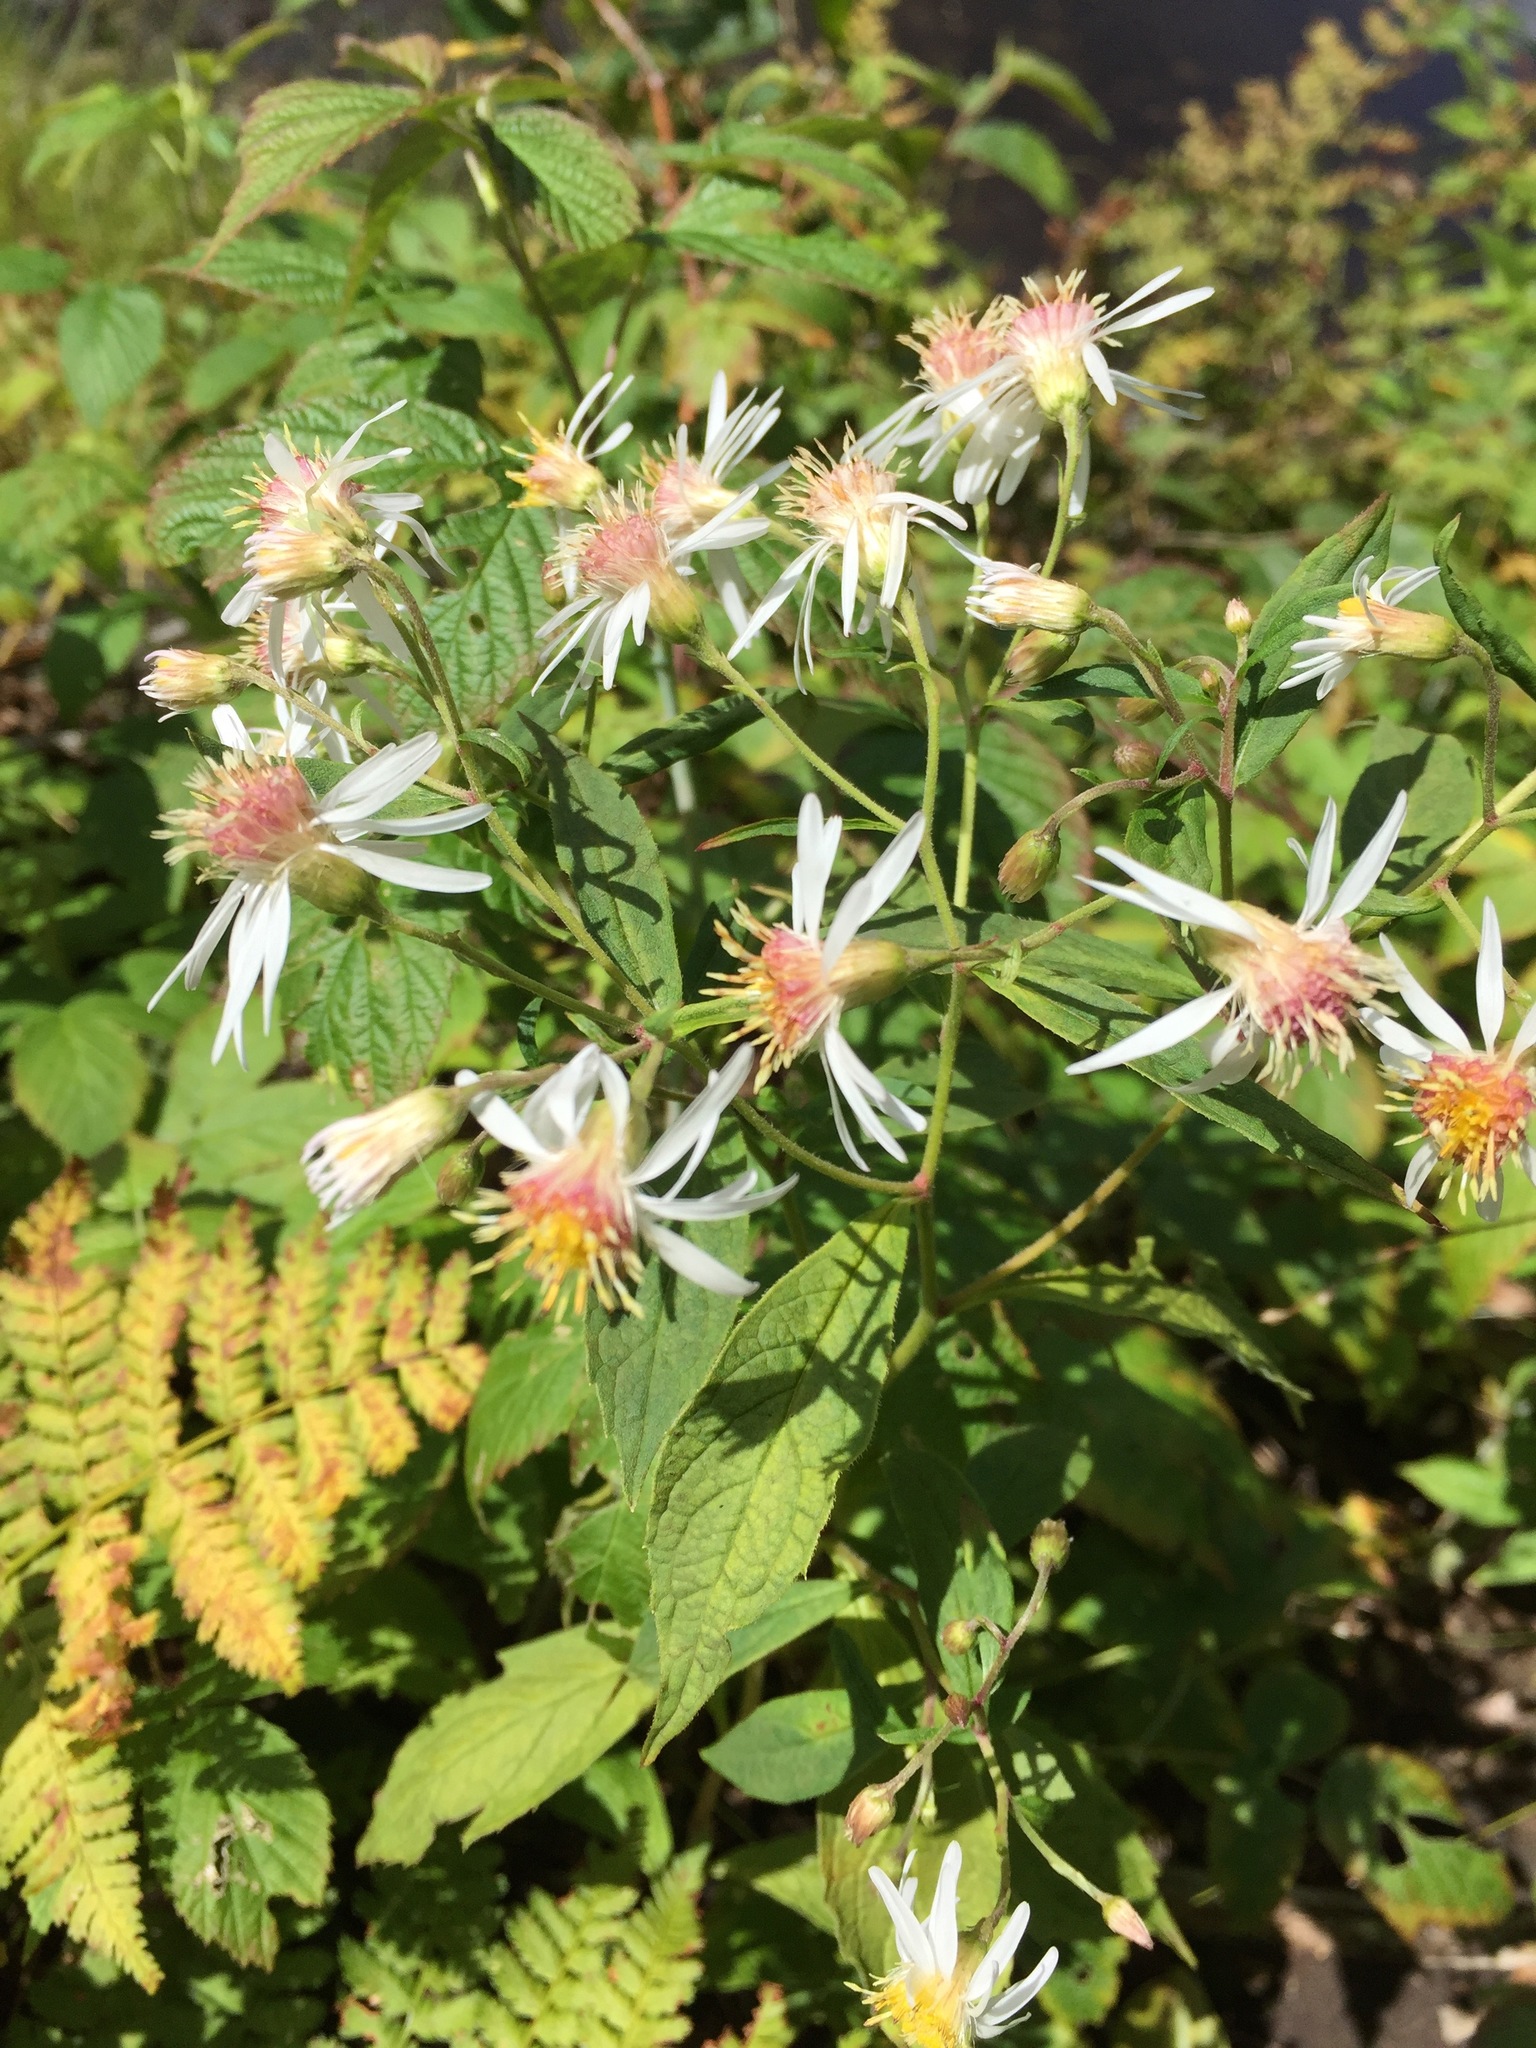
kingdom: Plantae
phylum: Tracheophyta
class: Magnoliopsida
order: Asterales
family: Asteraceae
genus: Oclemena
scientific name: Oclemena acuminata
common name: Mountain aster
